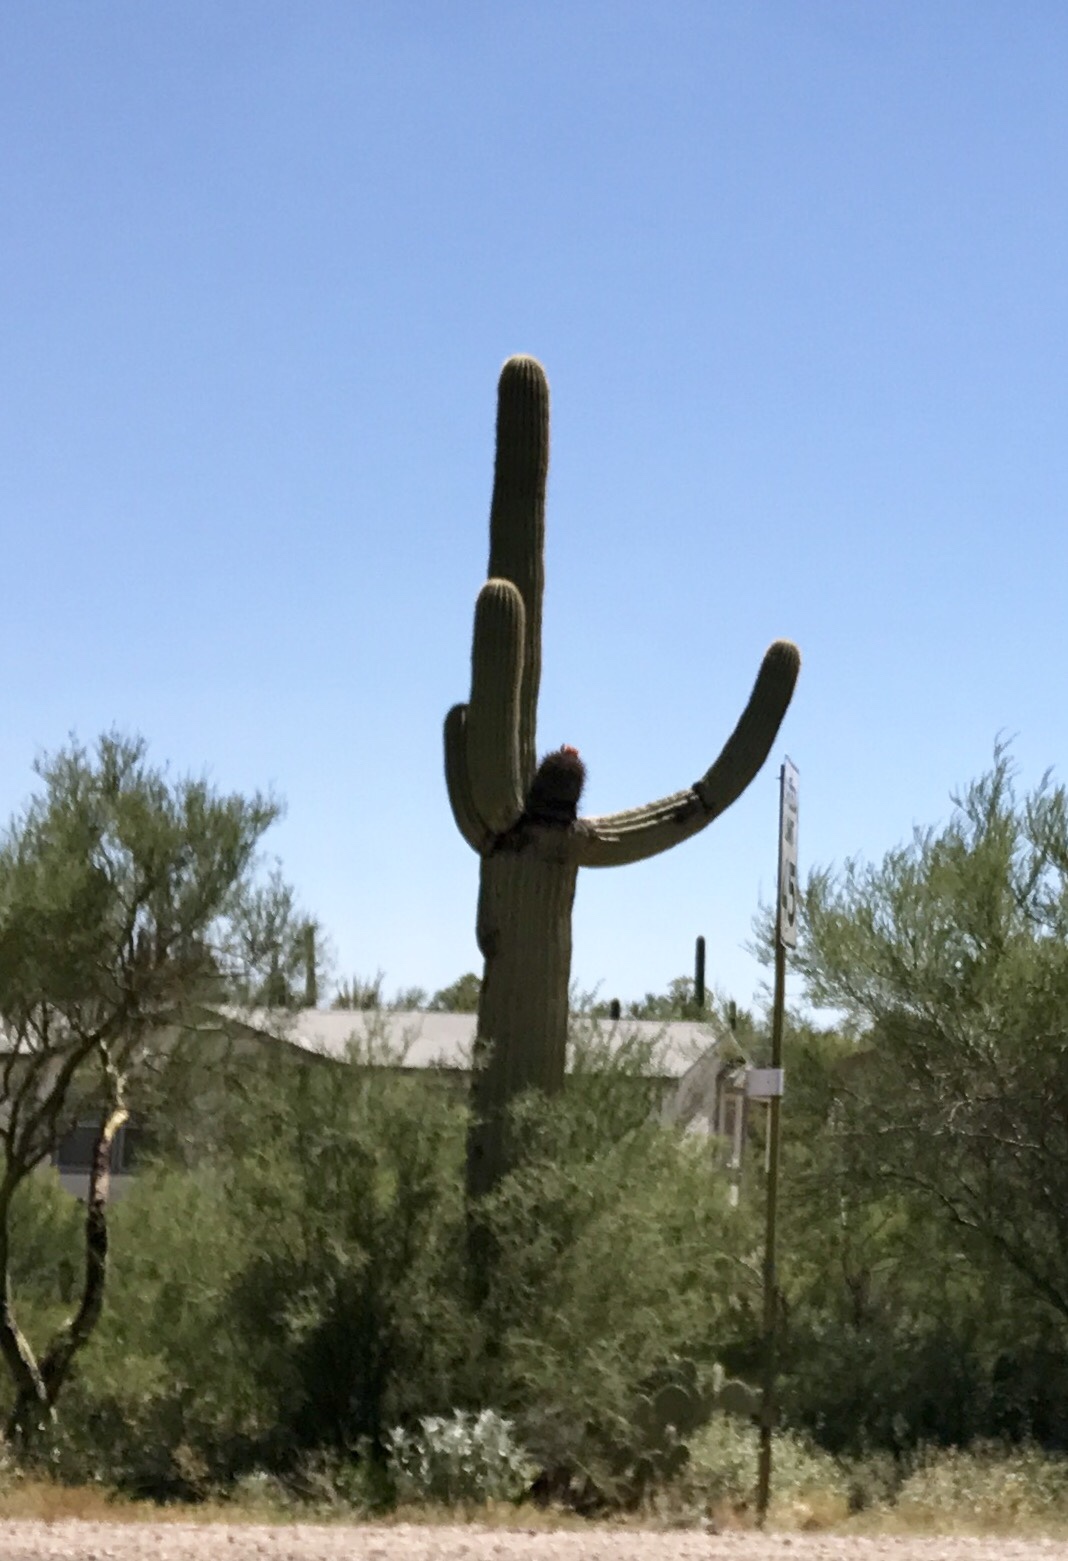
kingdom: Plantae
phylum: Tracheophyta
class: Magnoliopsida
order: Caryophyllales
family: Cactaceae
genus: Carnegiea
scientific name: Carnegiea gigantea
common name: Saguaro
